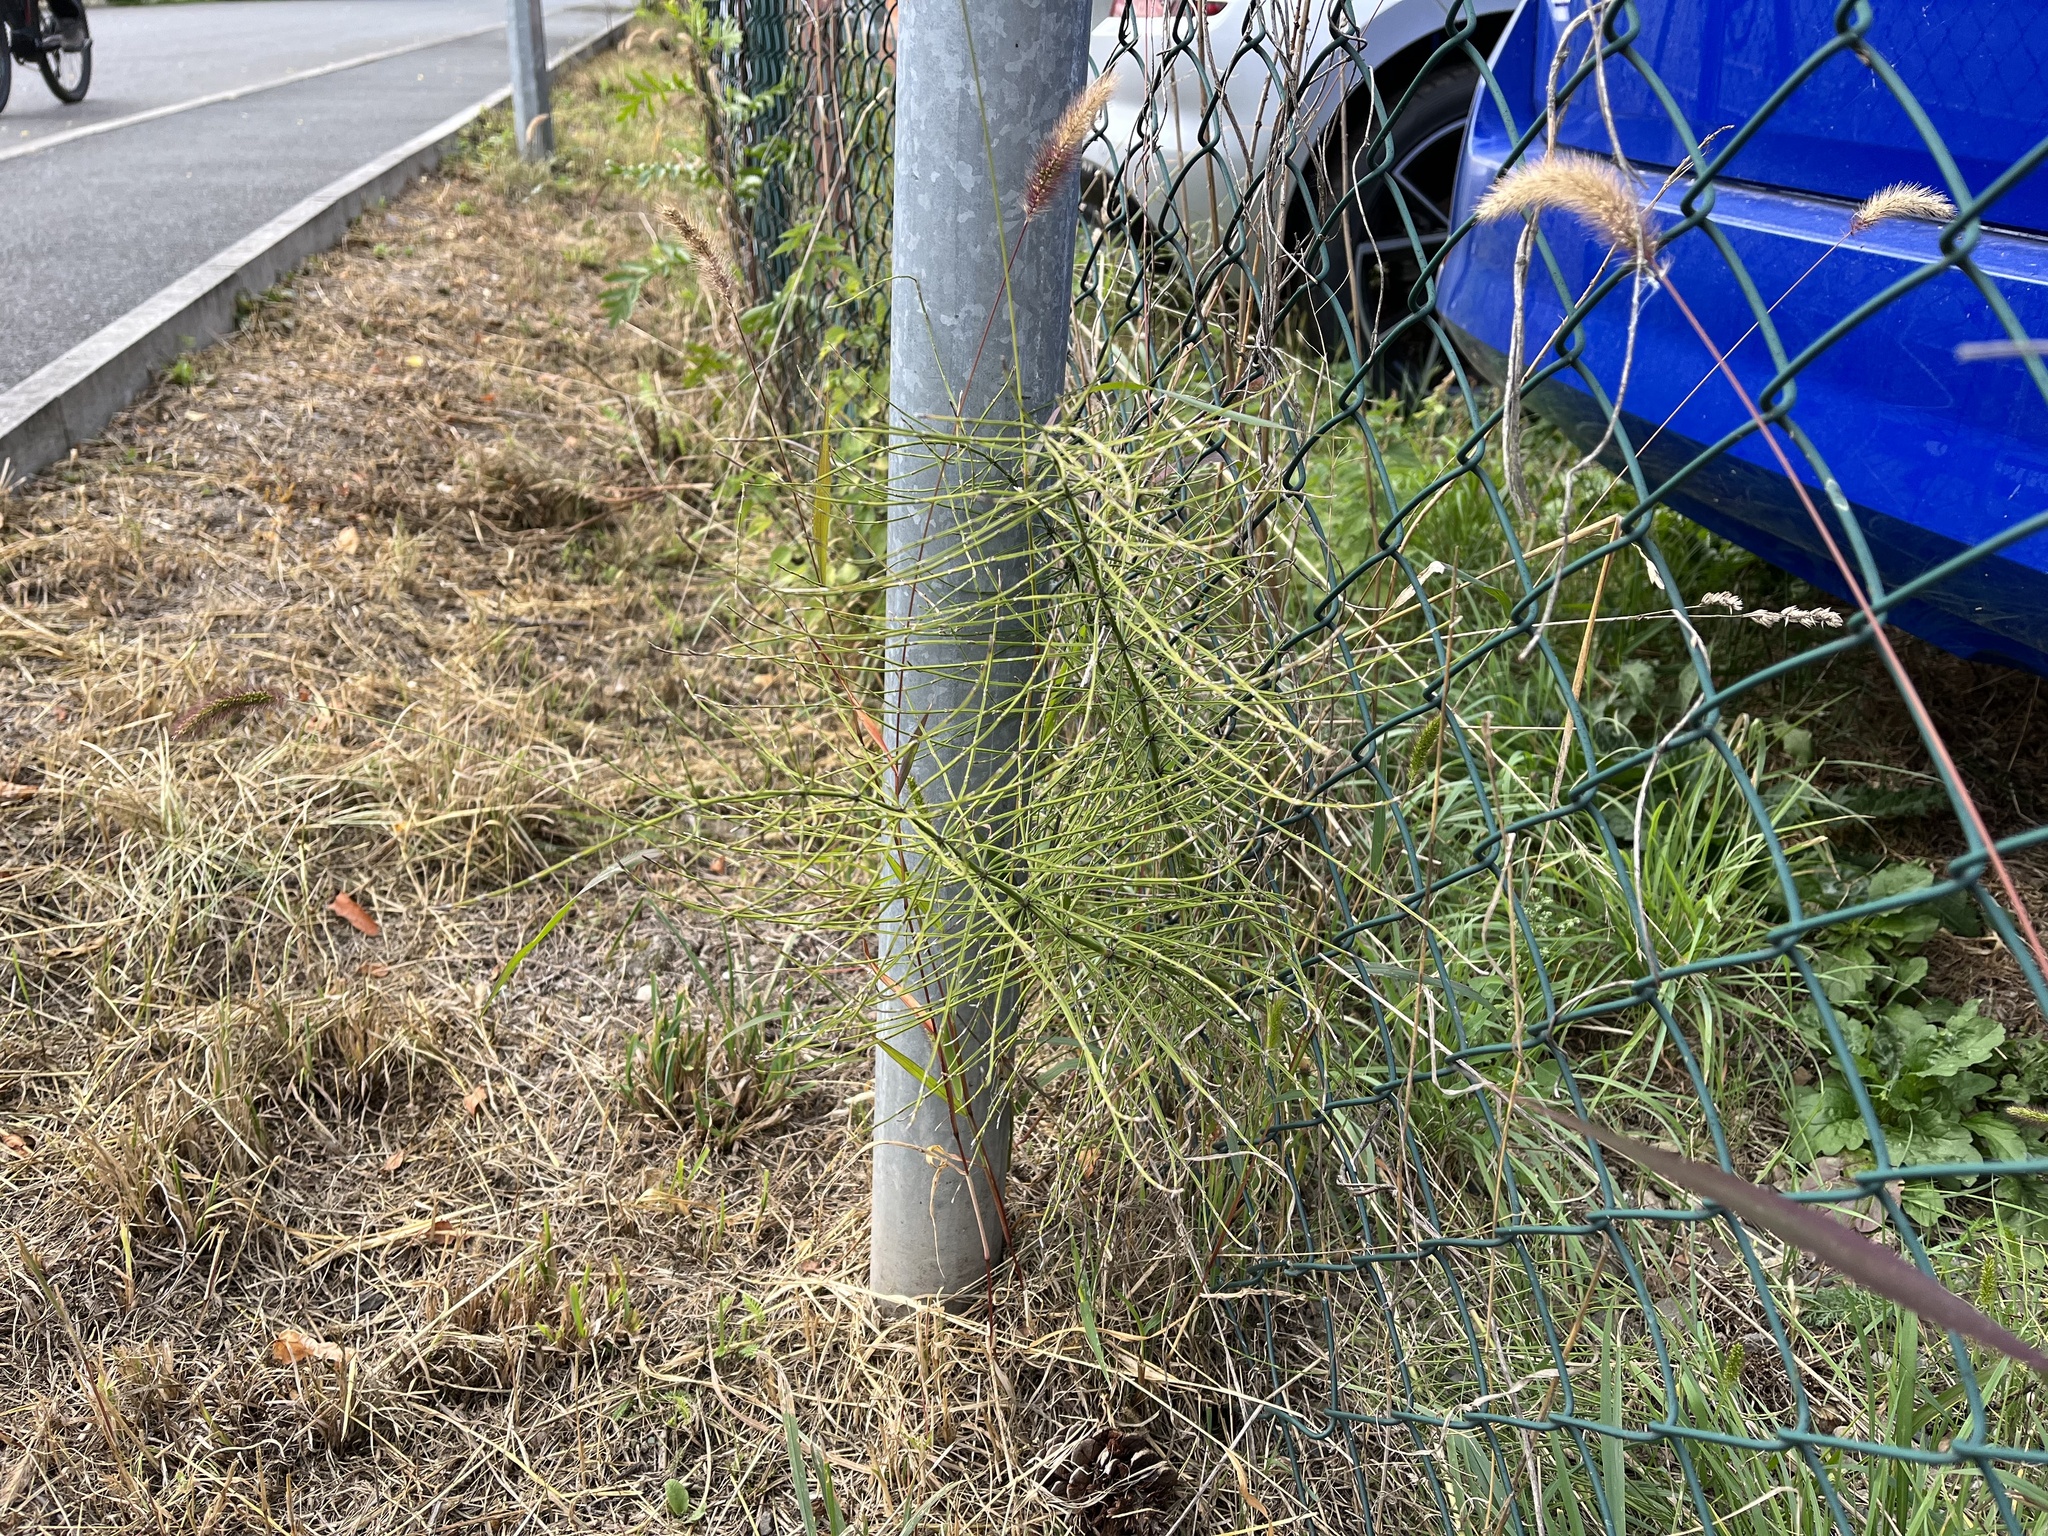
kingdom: Plantae
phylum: Tracheophyta
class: Polypodiopsida
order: Equisetales
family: Equisetaceae
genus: Equisetum
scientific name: Equisetum arvense
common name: Field horsetail
